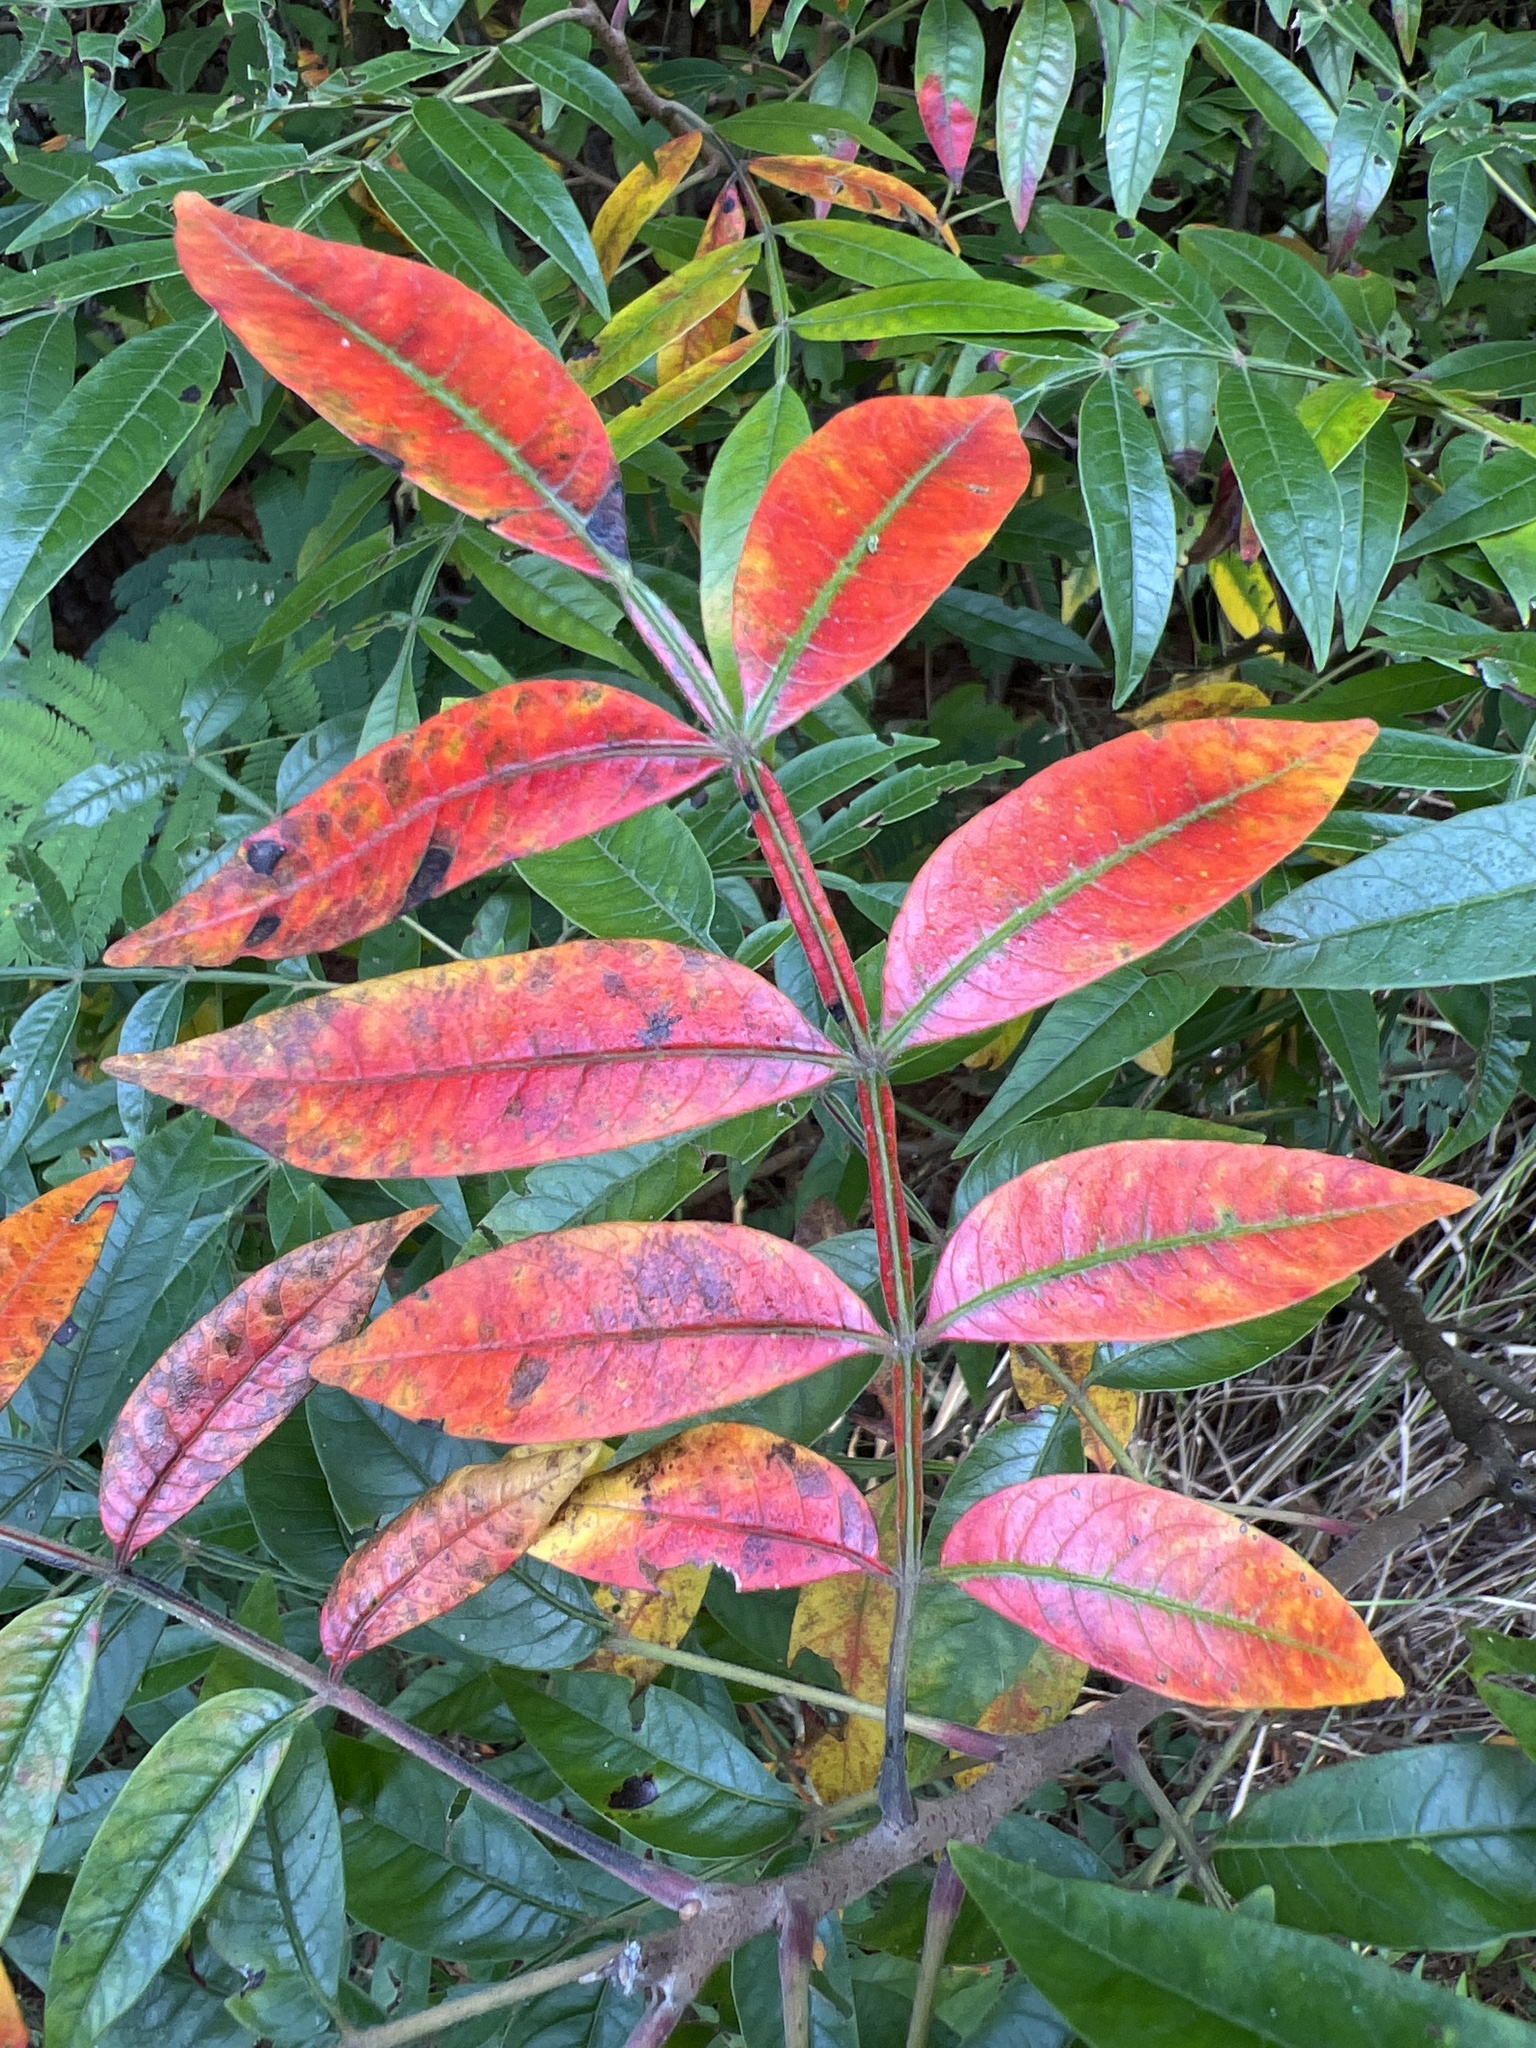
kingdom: Plantae
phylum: Tracheophyta
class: Magnoliopsida
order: Sapindales
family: Anacardiaceae
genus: Rhus
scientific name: Rhus copallina
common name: Shining sumac
